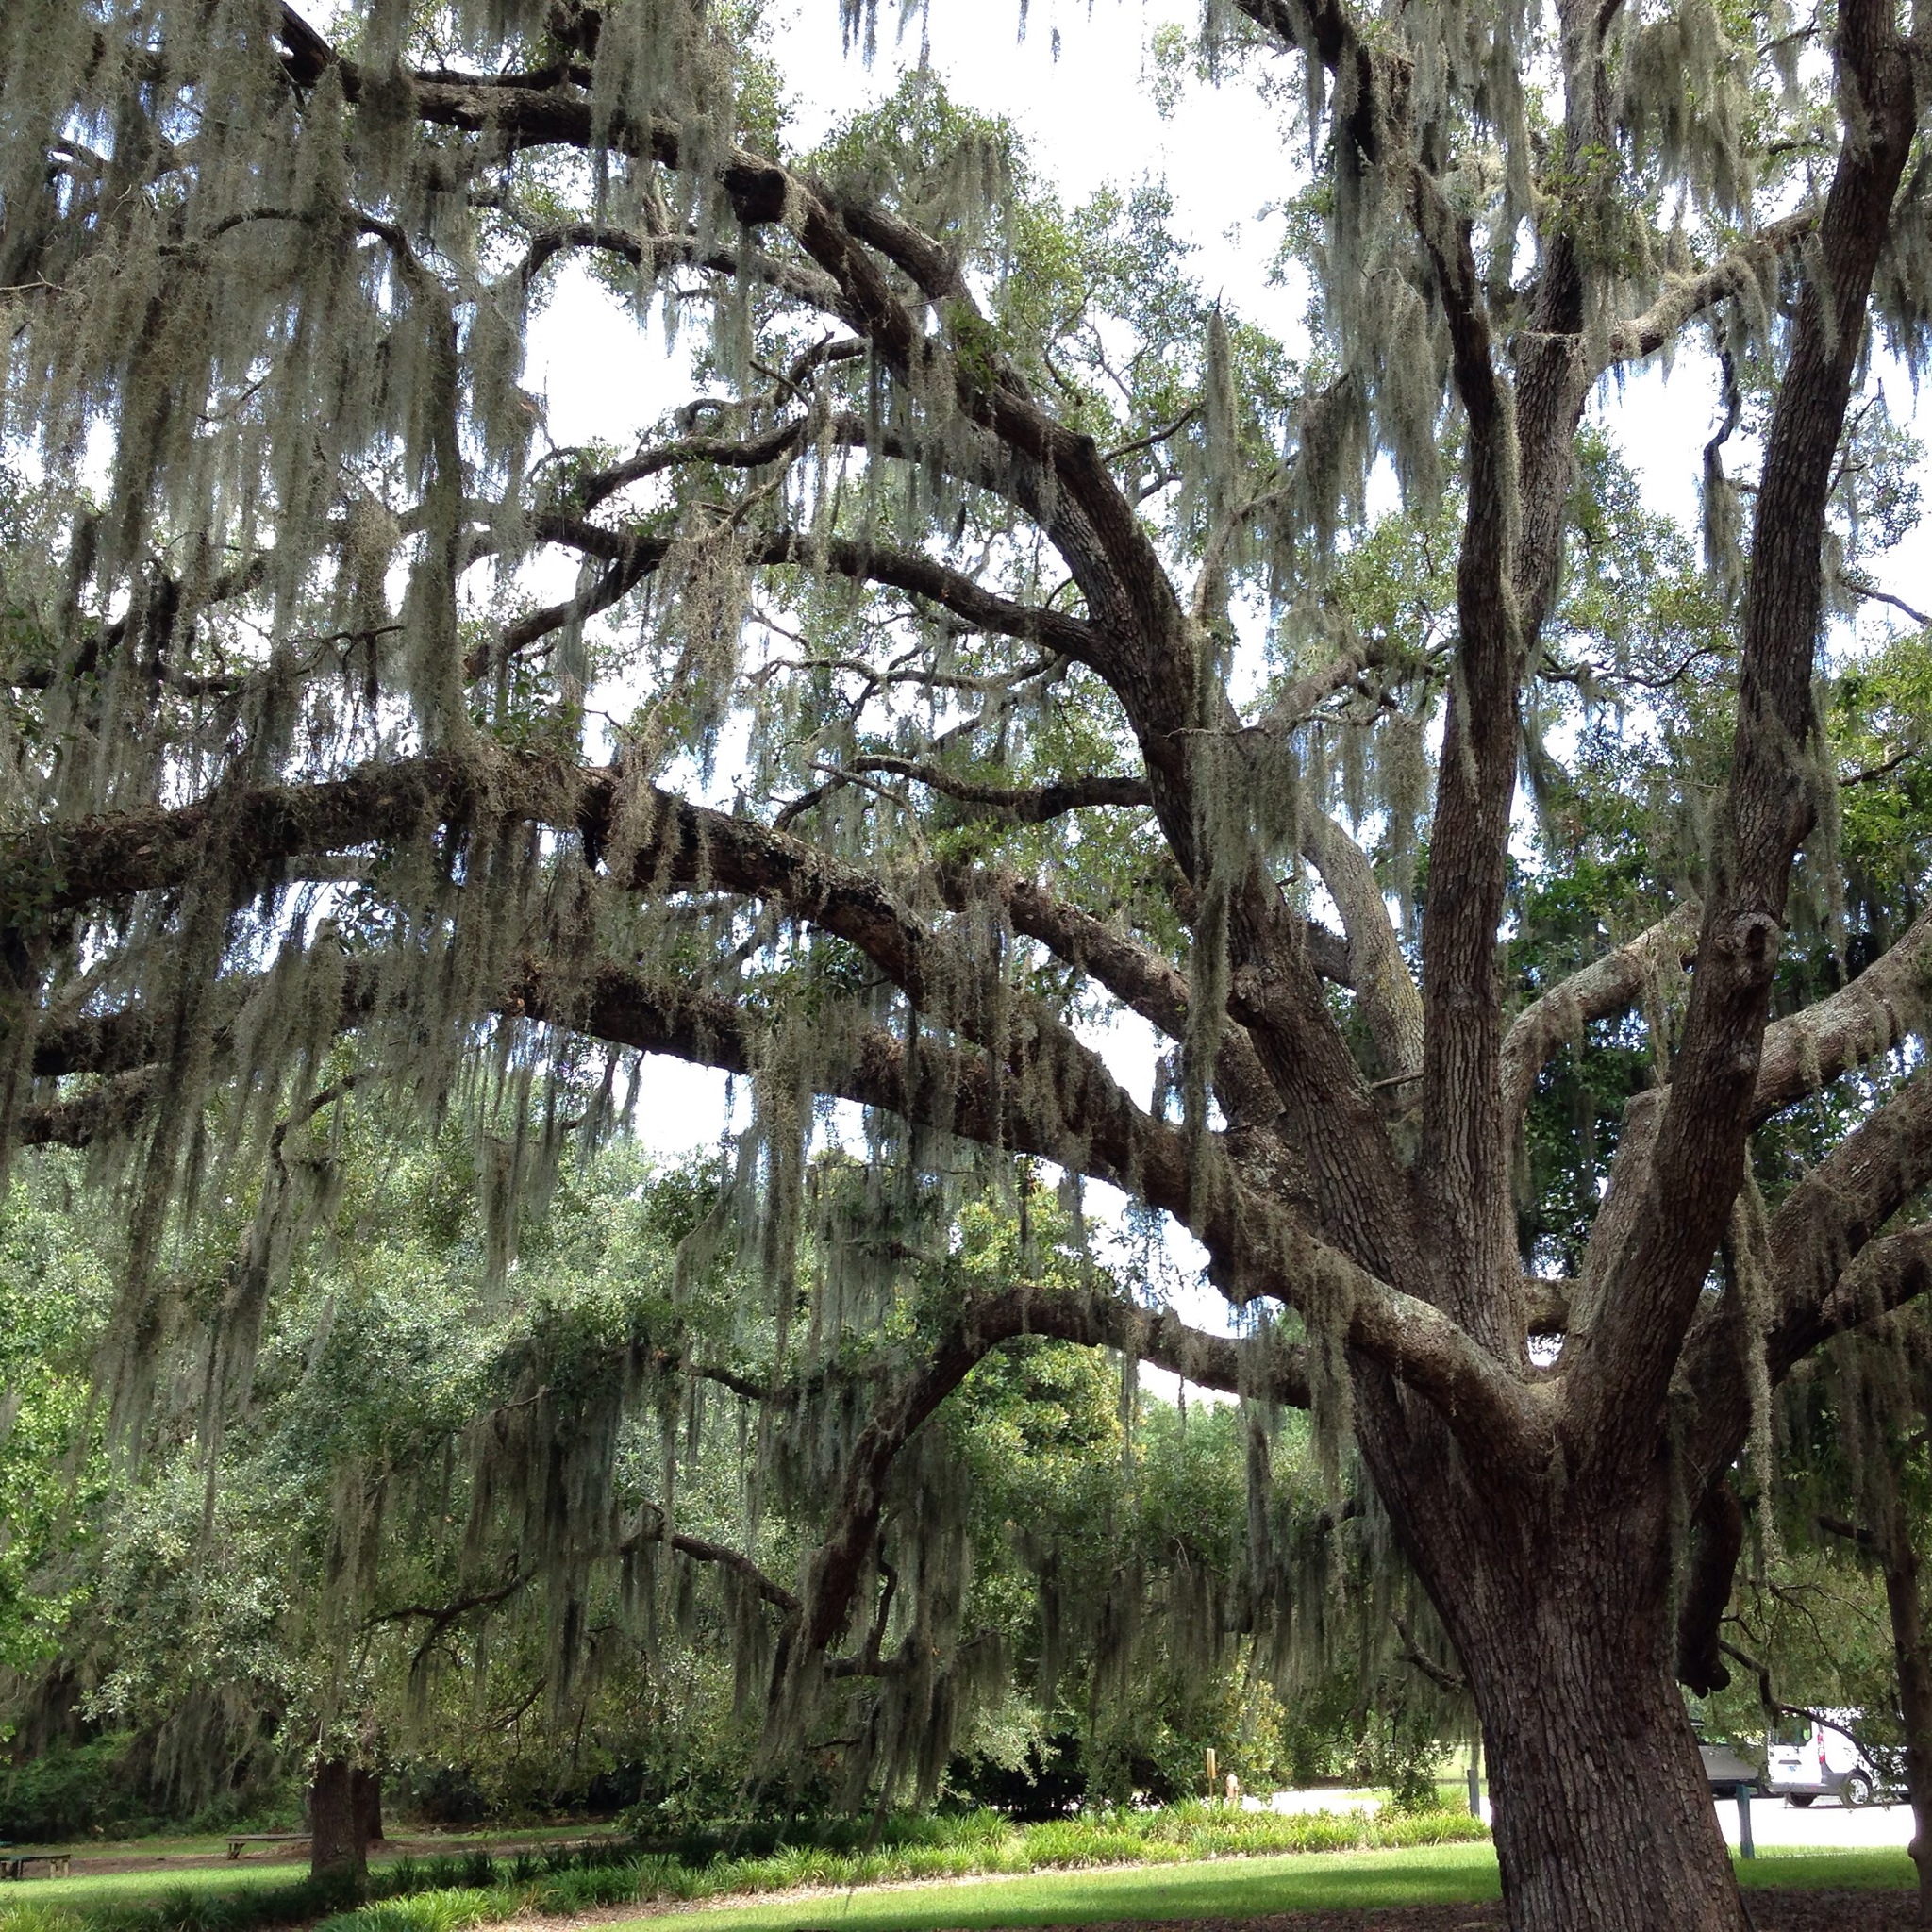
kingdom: Plantae
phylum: Tracheophyta
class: Liliopsida
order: Poales
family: Bromeliaceae
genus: Tillandsia
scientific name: Tillandsia usneoides
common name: Spanish moss
